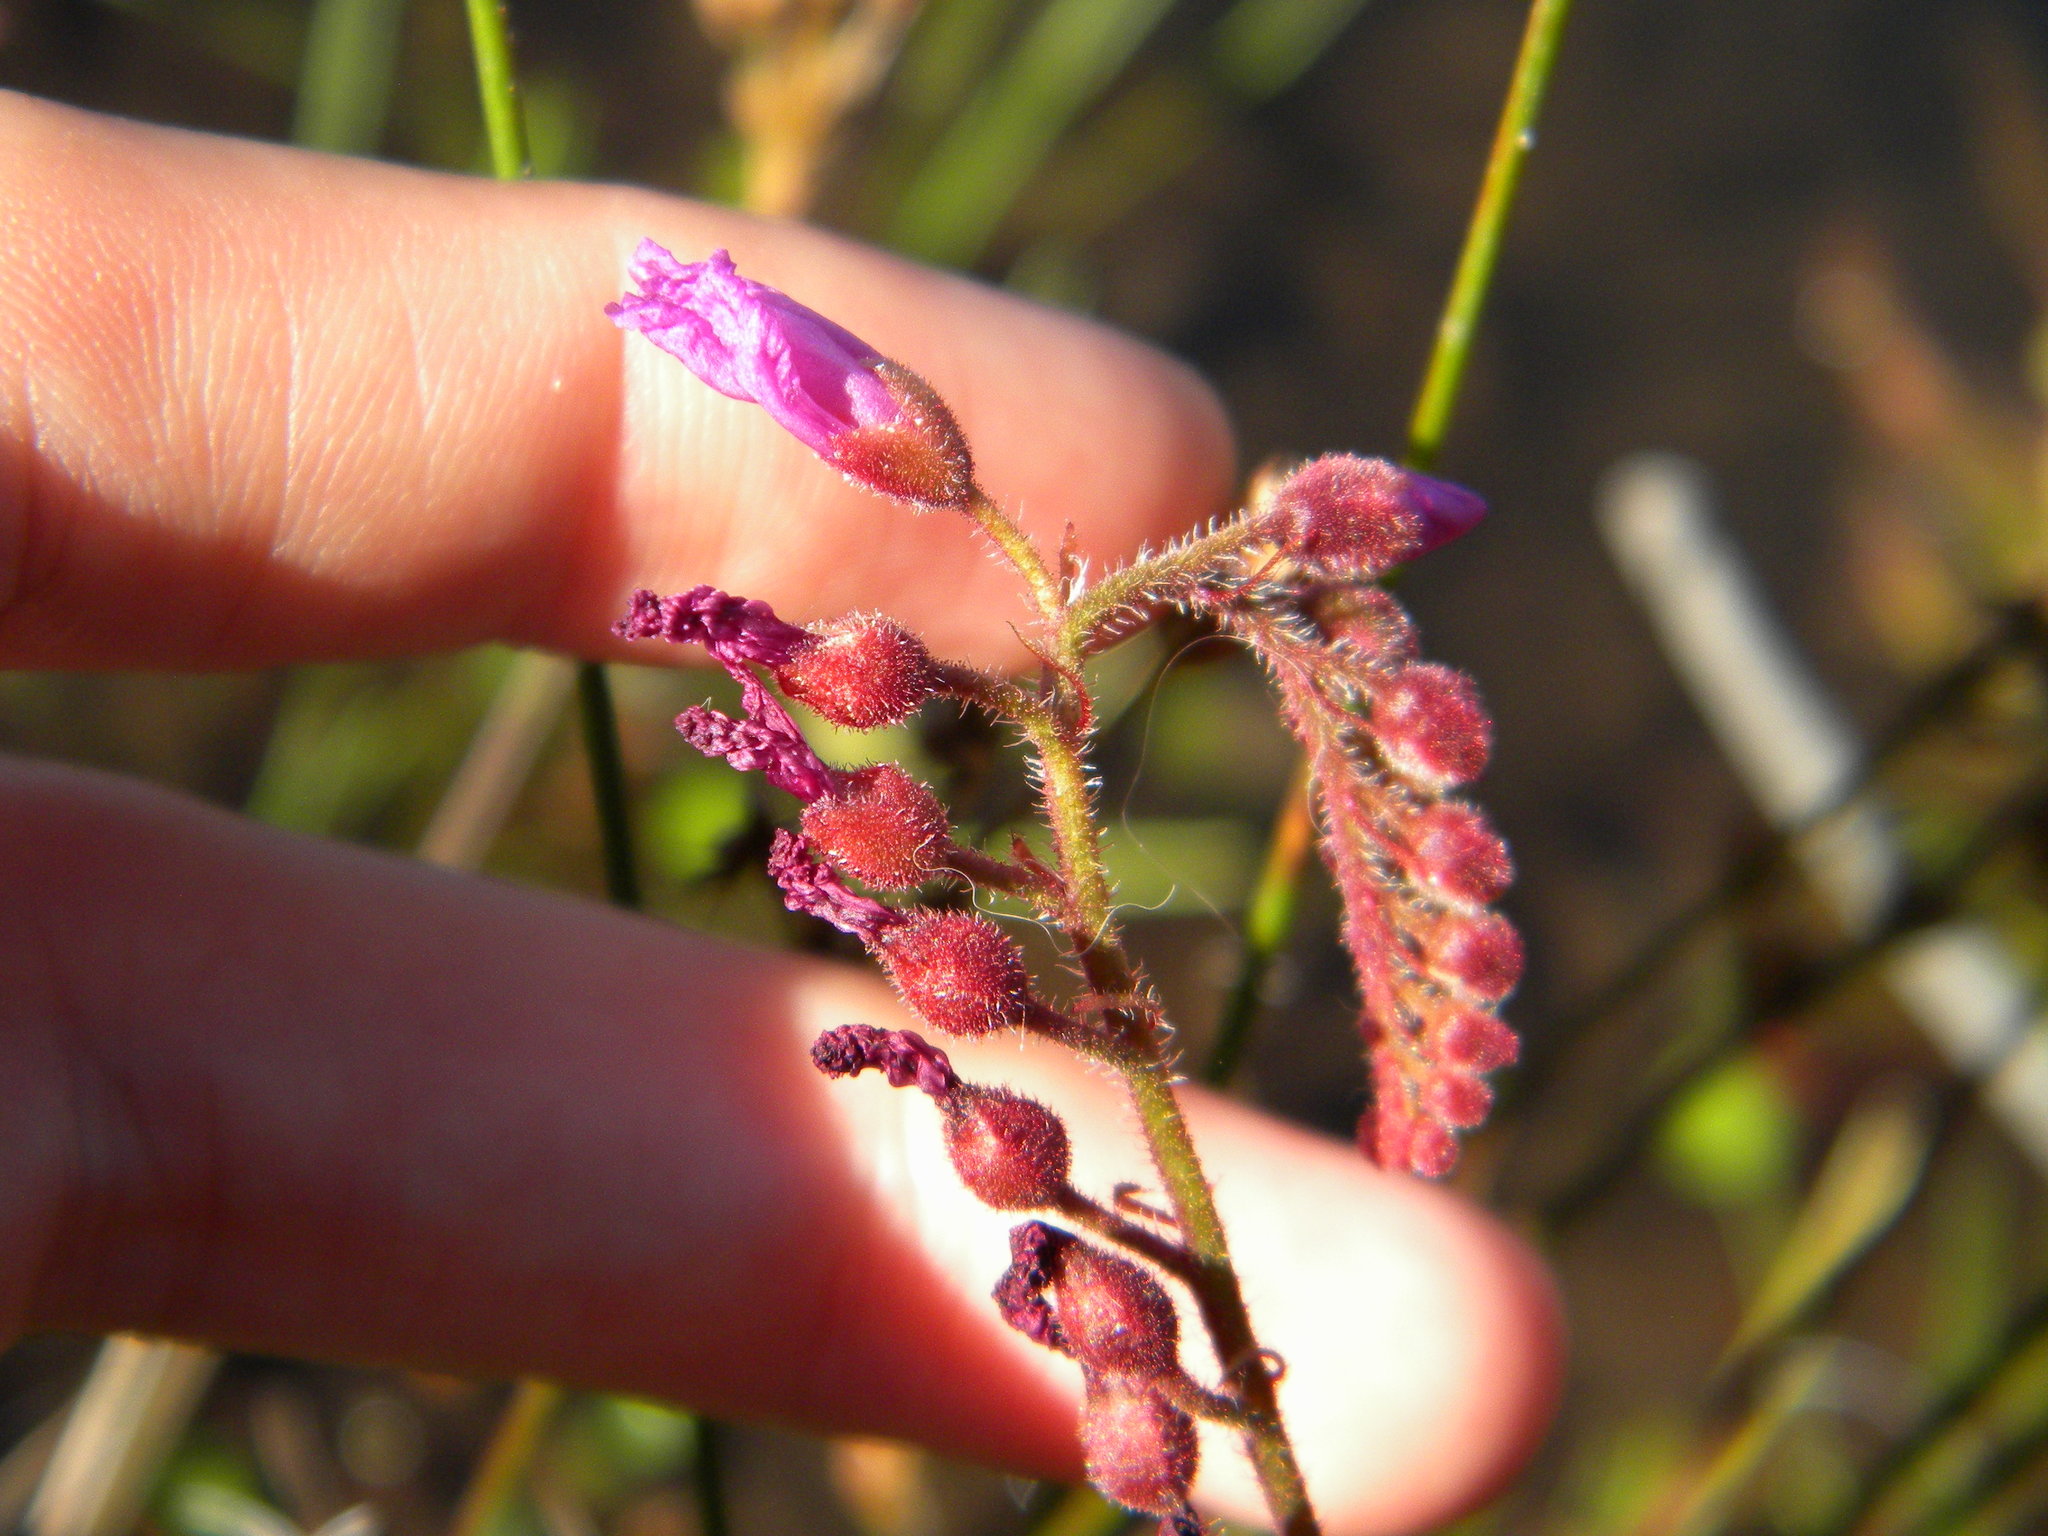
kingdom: Plantae
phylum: Tracheophyta
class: Magnoliopsida
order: Caryophyllales
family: Droseraceae
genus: Drosera
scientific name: Drosera capensis
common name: Cape sundew
